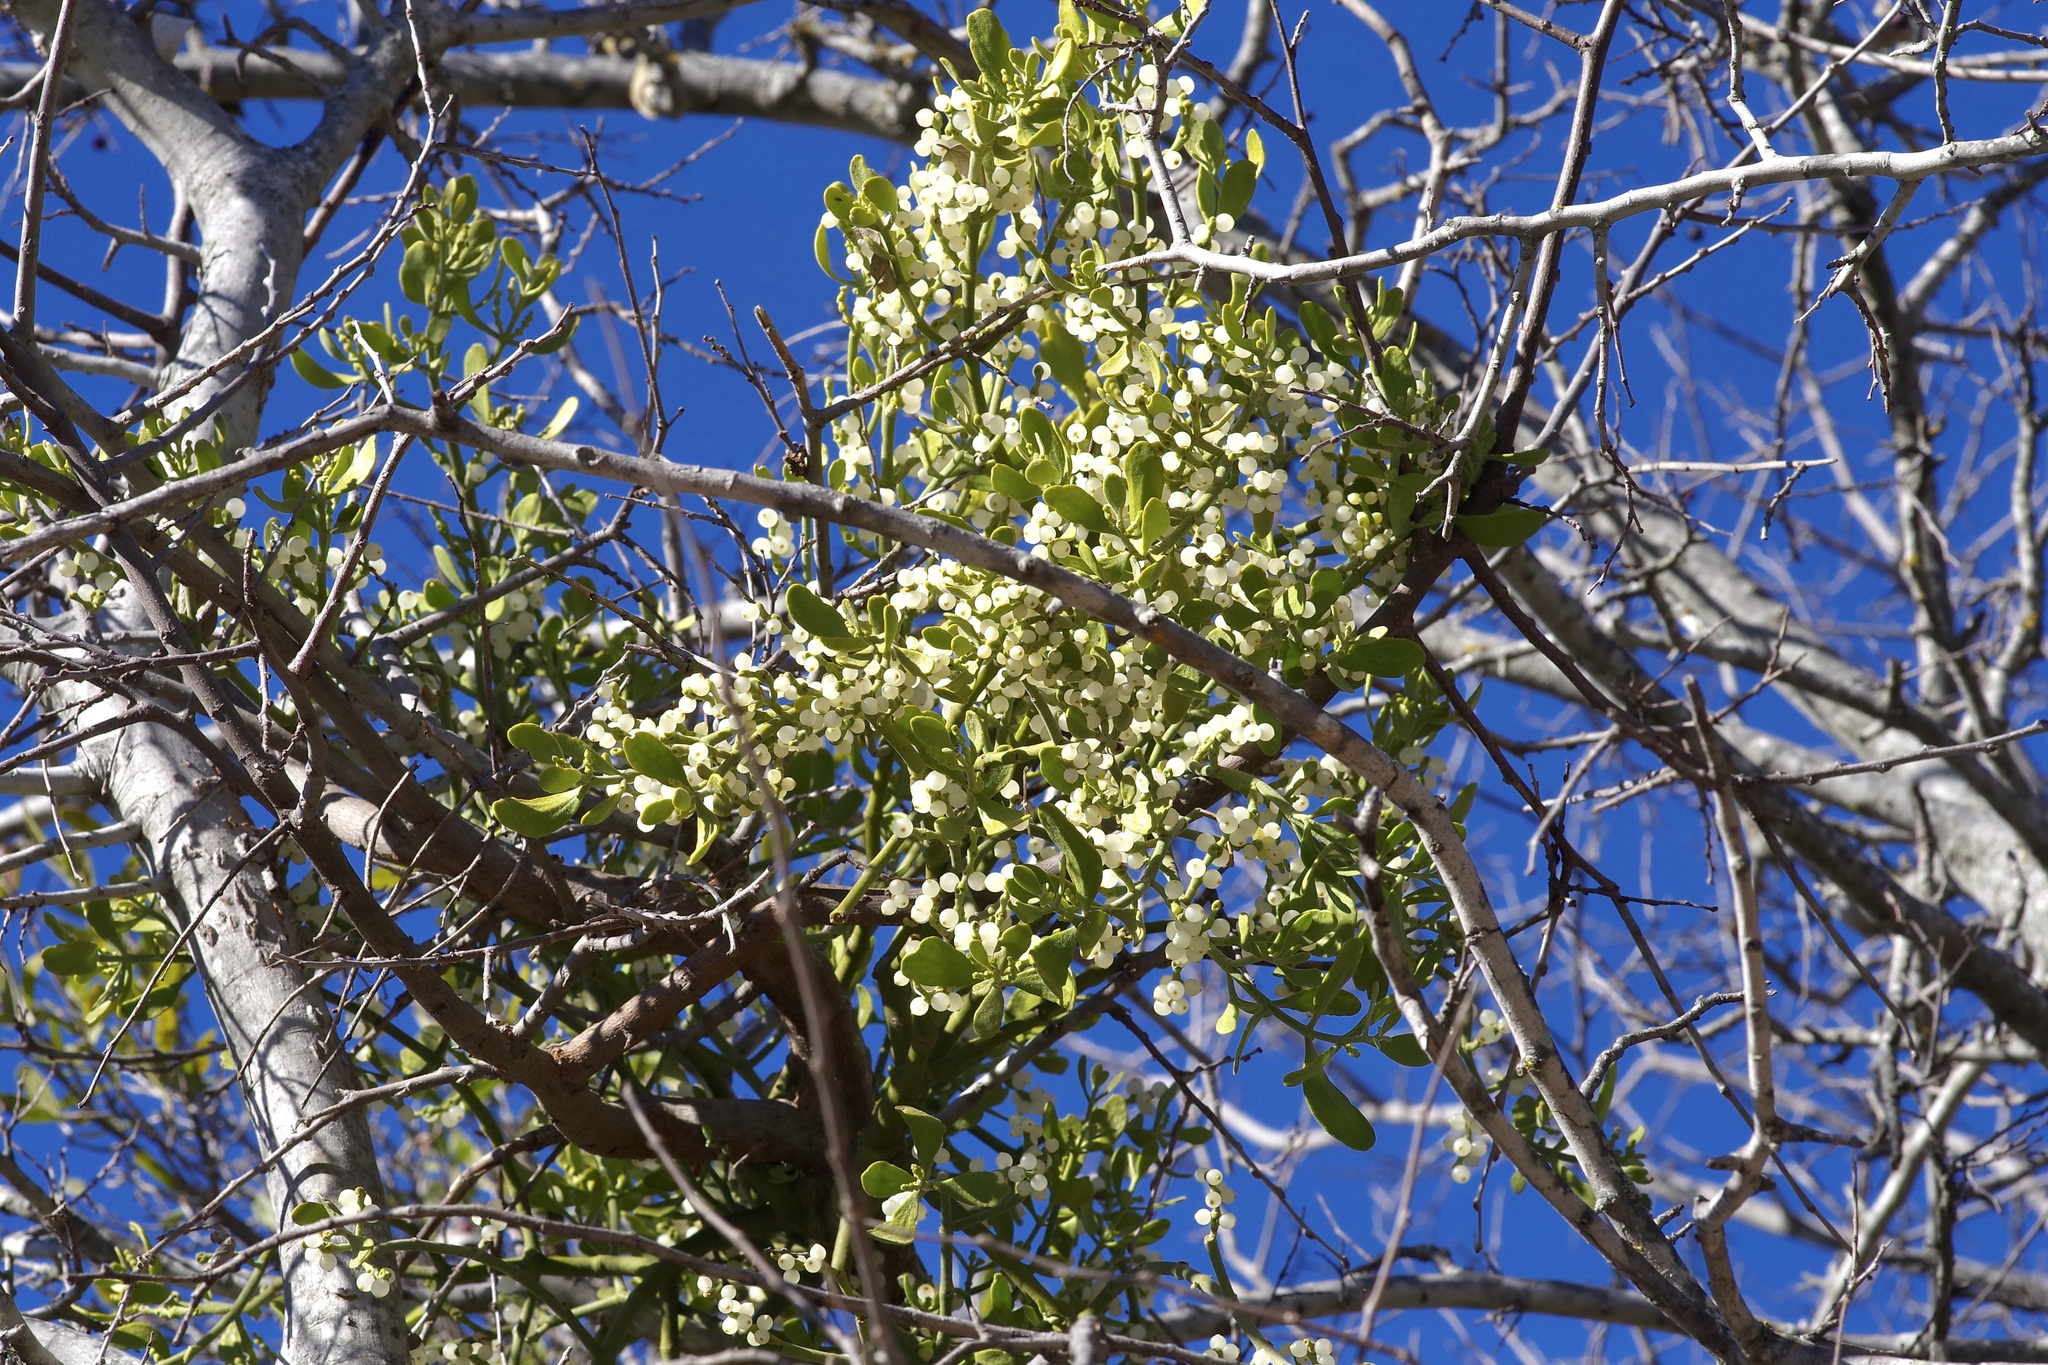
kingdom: Plantae
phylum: Tracheophyta
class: Magnoliopsida
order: Santalales
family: Viscaceae
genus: Phoradendron
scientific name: Phoradendron leucarpum
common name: Pacific mistletoe
